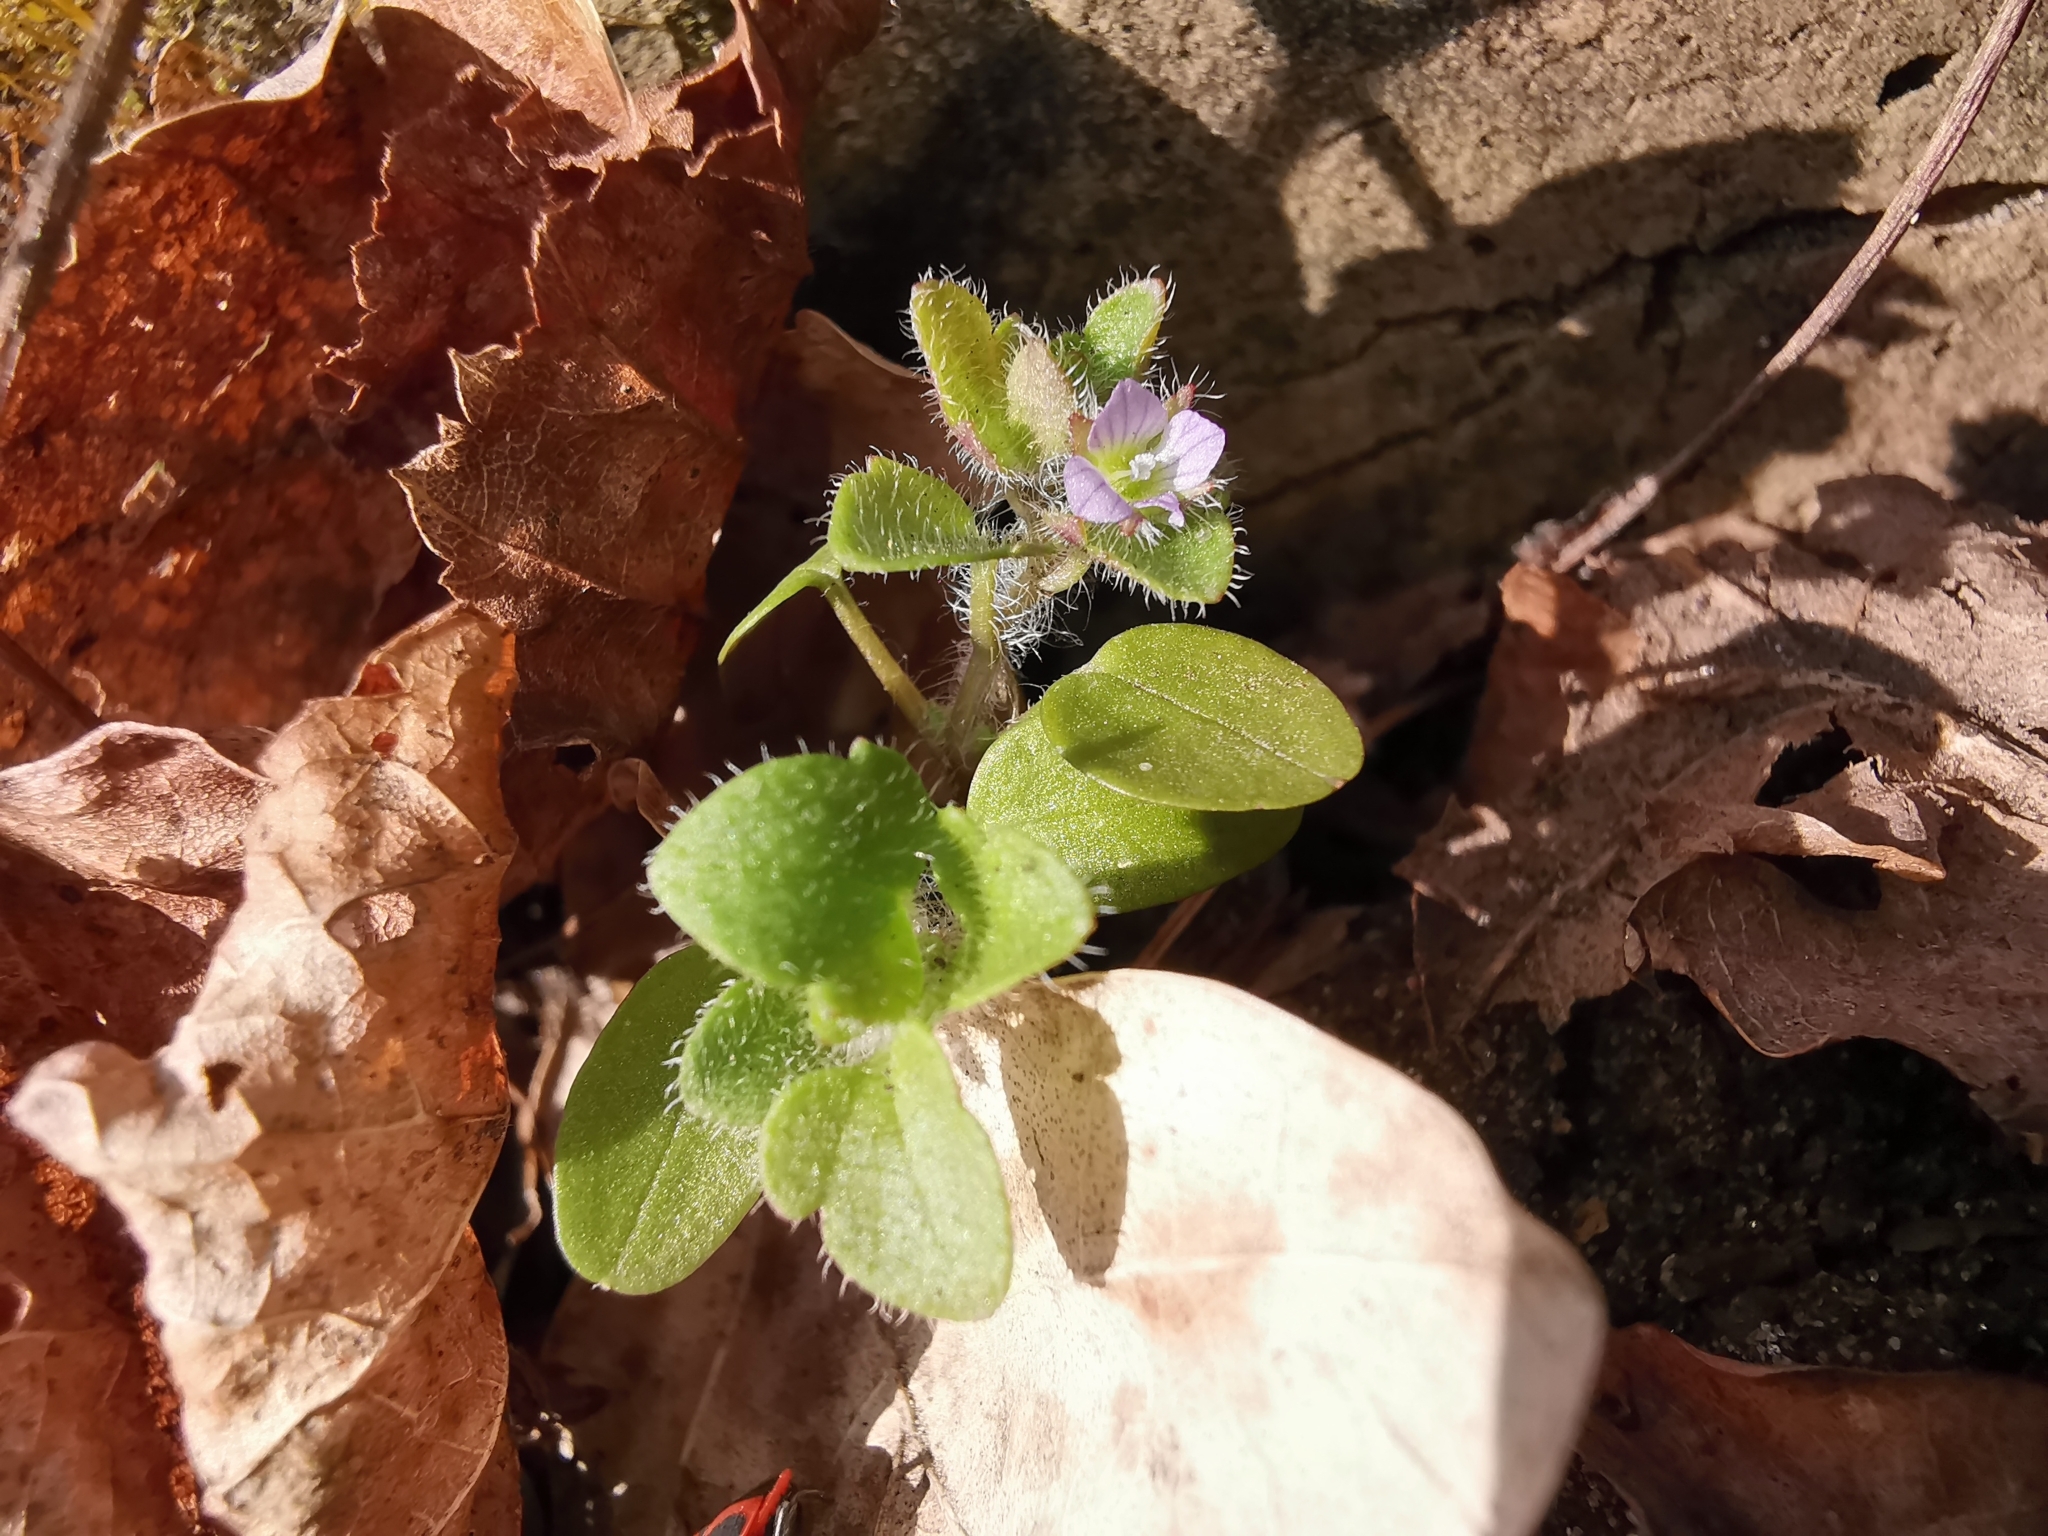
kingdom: Plantae
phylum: Tracheophyta
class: Magnoliopsida
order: Lamiales
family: Plantaginaceae
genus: Veronica
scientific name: Veronica sublobata
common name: False ivy-leaved speedwell
